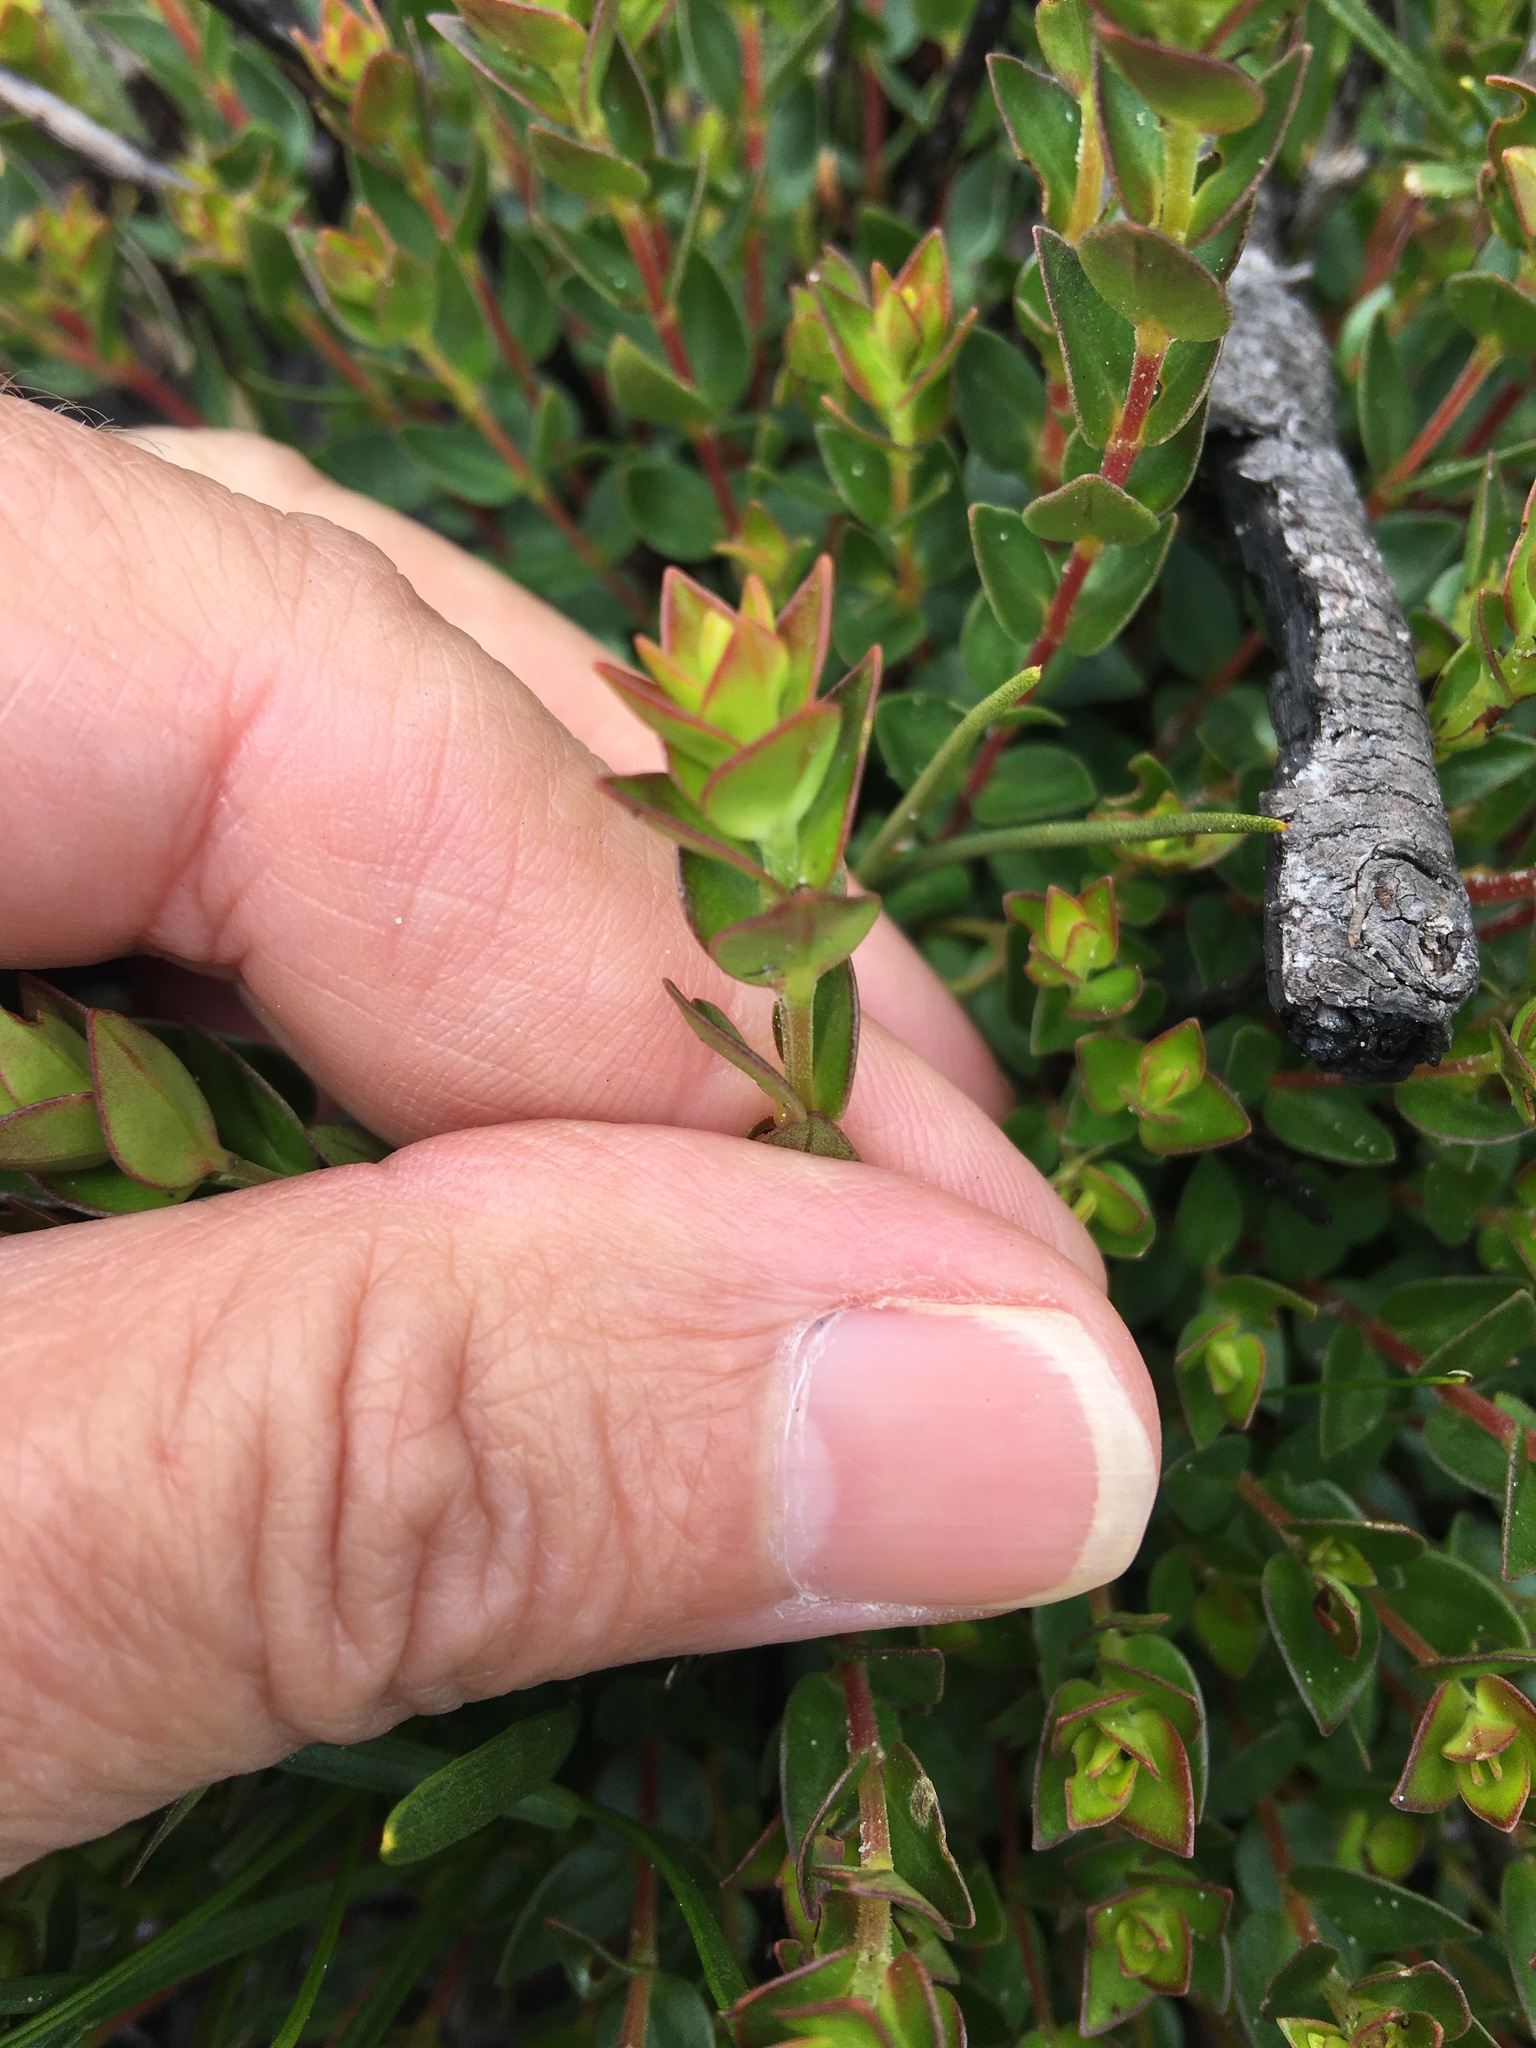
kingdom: Plantae
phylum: Tracheophyta
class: Magnoliopsida
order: Myrtales
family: Penaeaceae
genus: Penaea
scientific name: Penaea mucronata
